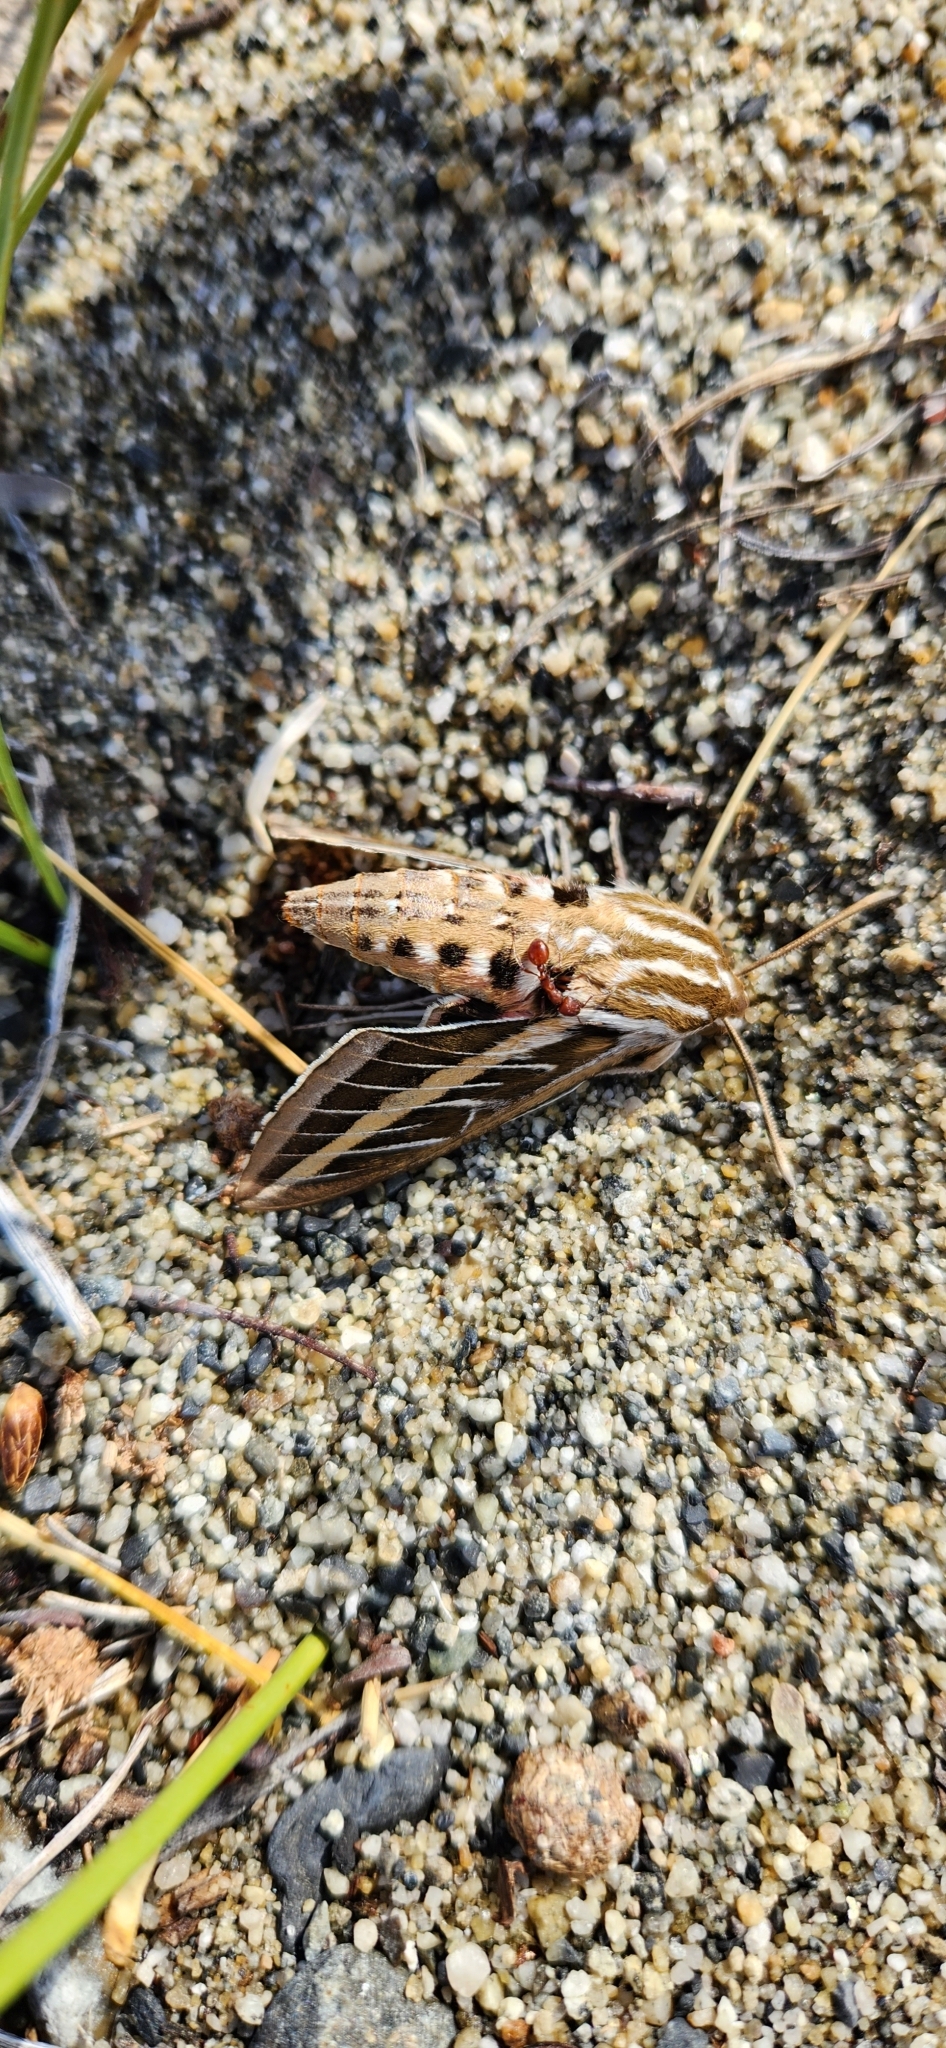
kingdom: Animalia
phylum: Arthropoda
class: Insecta
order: Lepidoptera
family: Sphingidae
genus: Hyles
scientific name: Hyles lineata
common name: White-lined sphinx
